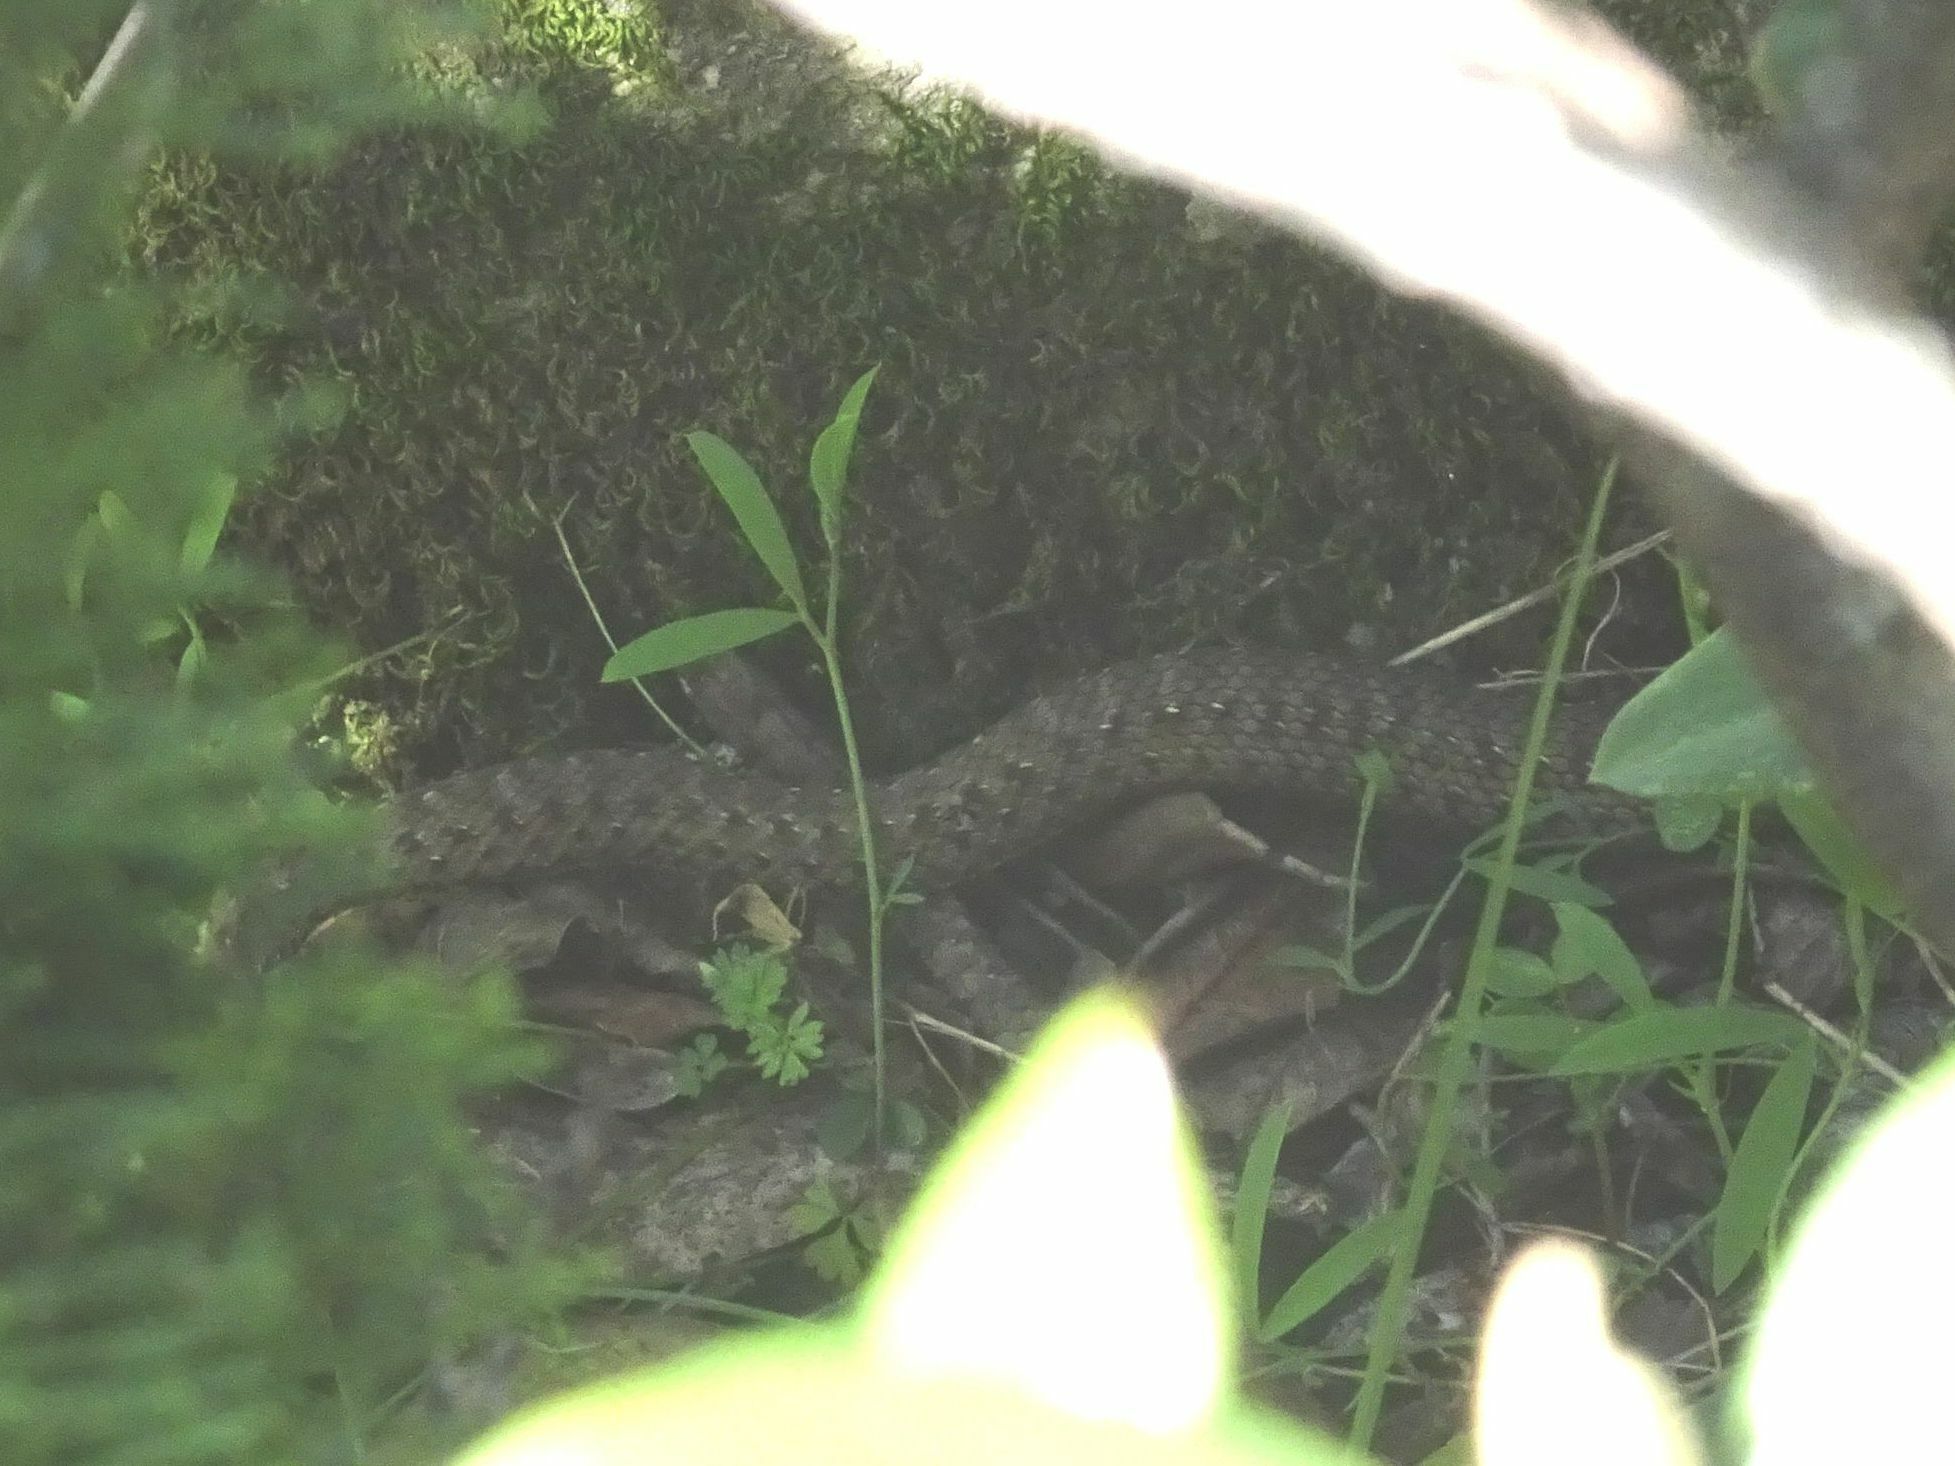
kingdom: Animalia
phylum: Chordata
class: Squamata
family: Psammophiidae
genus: Malpolon
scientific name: Malpolon monspessulanus
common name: Montpellier snake
